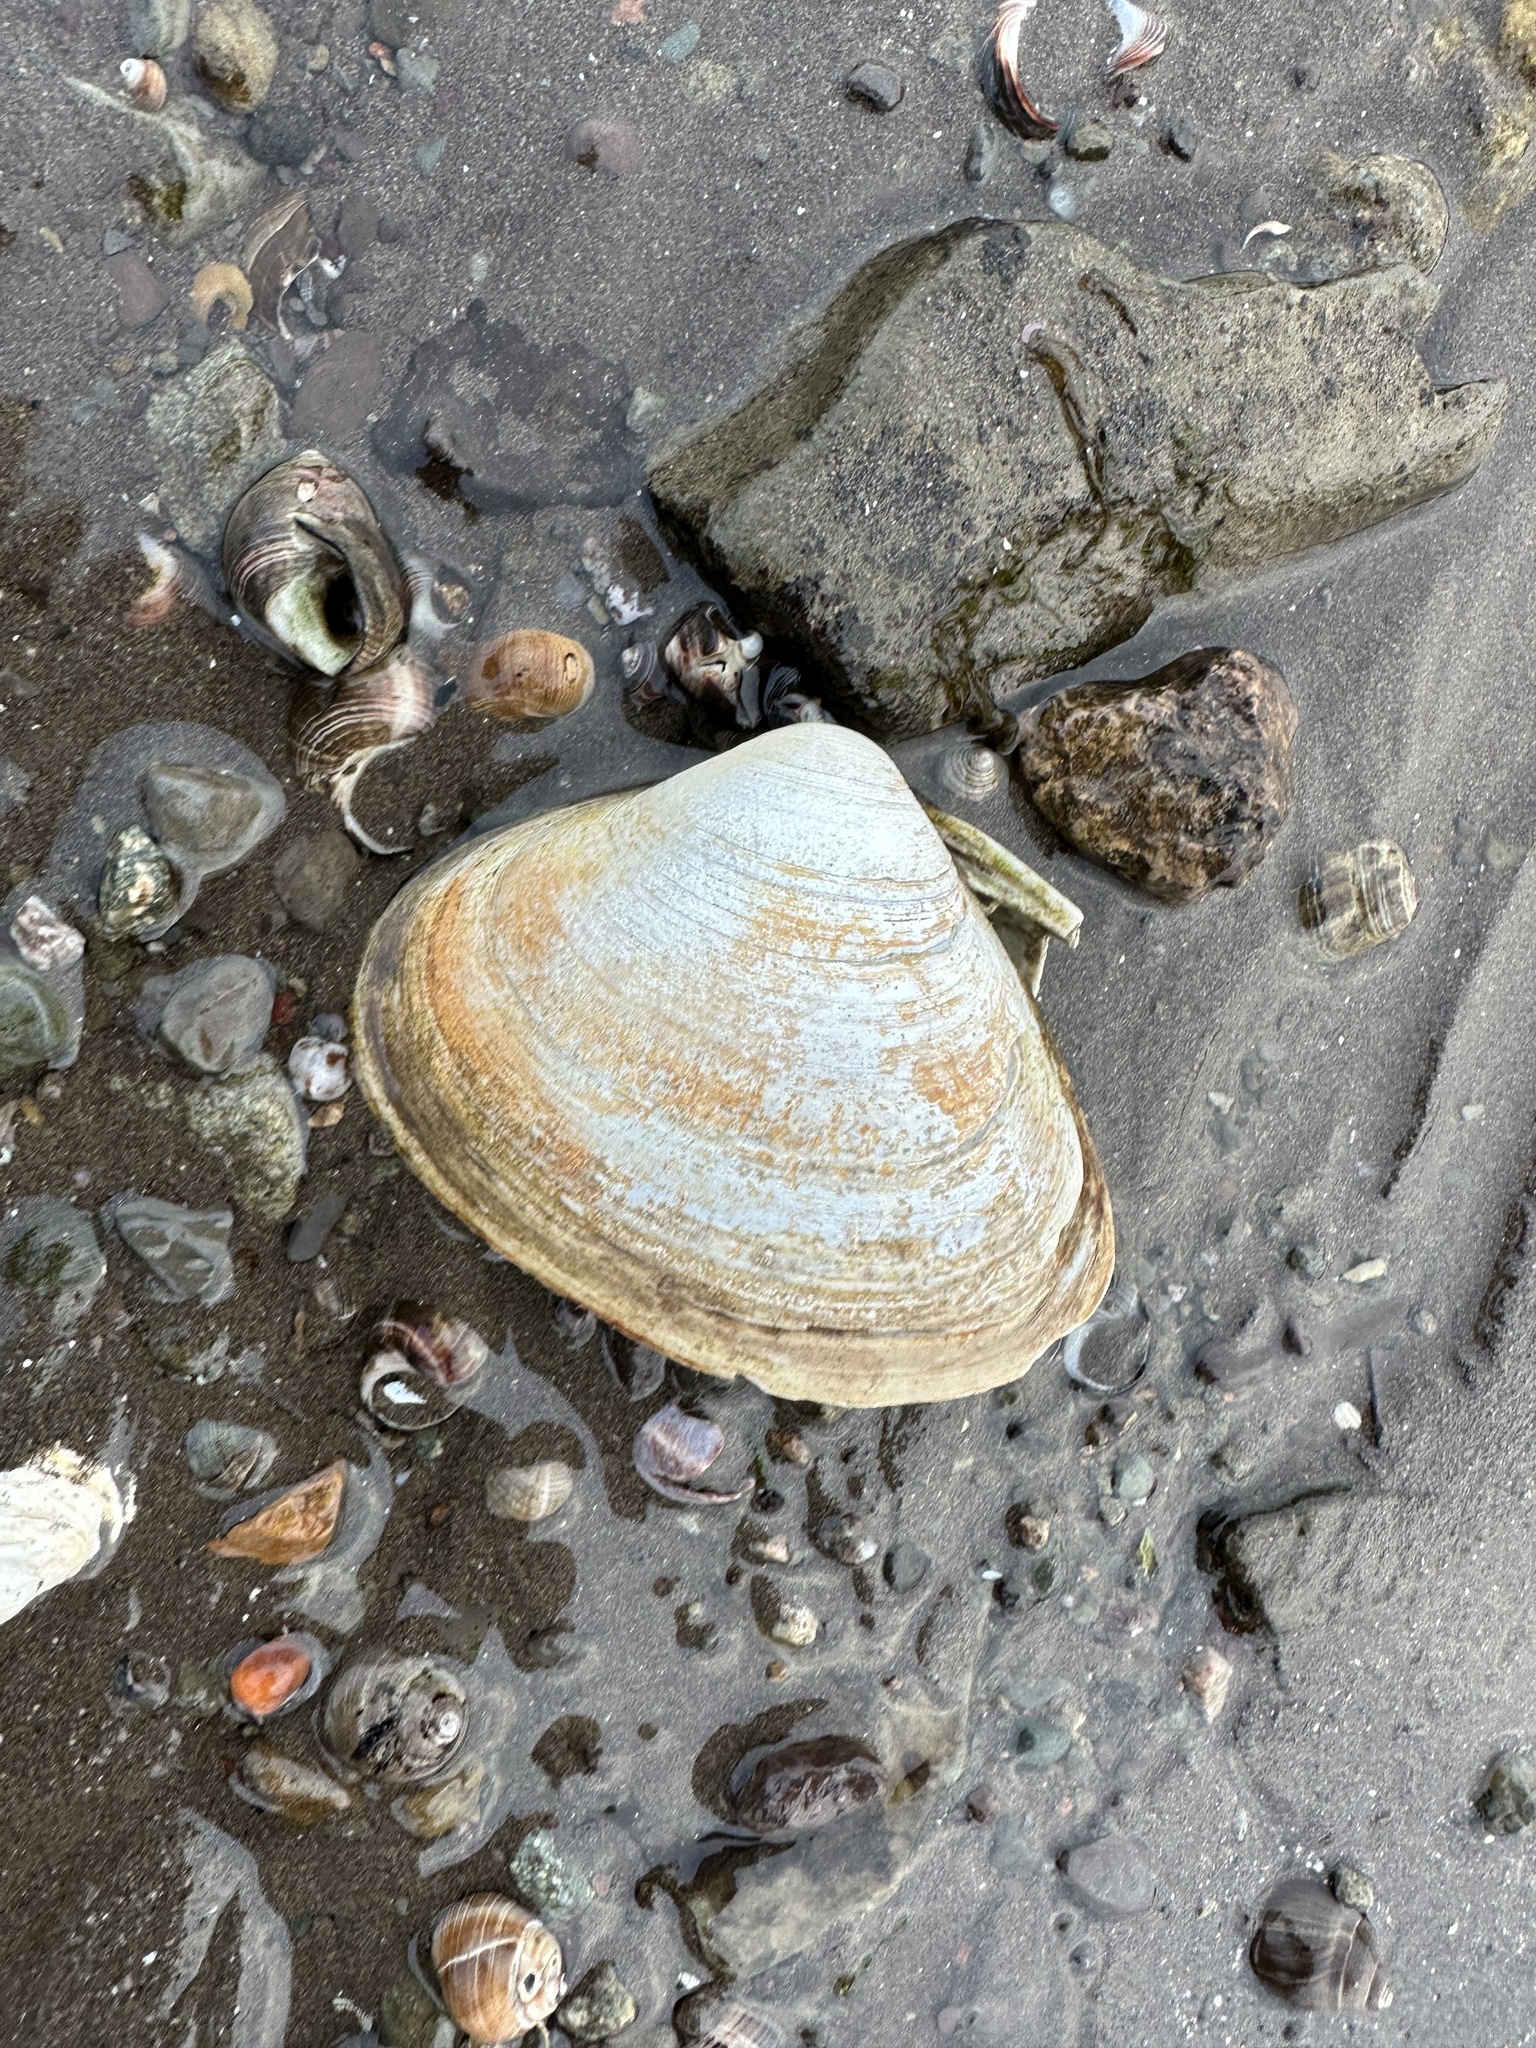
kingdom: Animalia
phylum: Mollusca
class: Bivalvia
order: Venerida
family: Mactridae
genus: Spisula
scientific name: Spisula solidissima
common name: Atlantic surf clam
